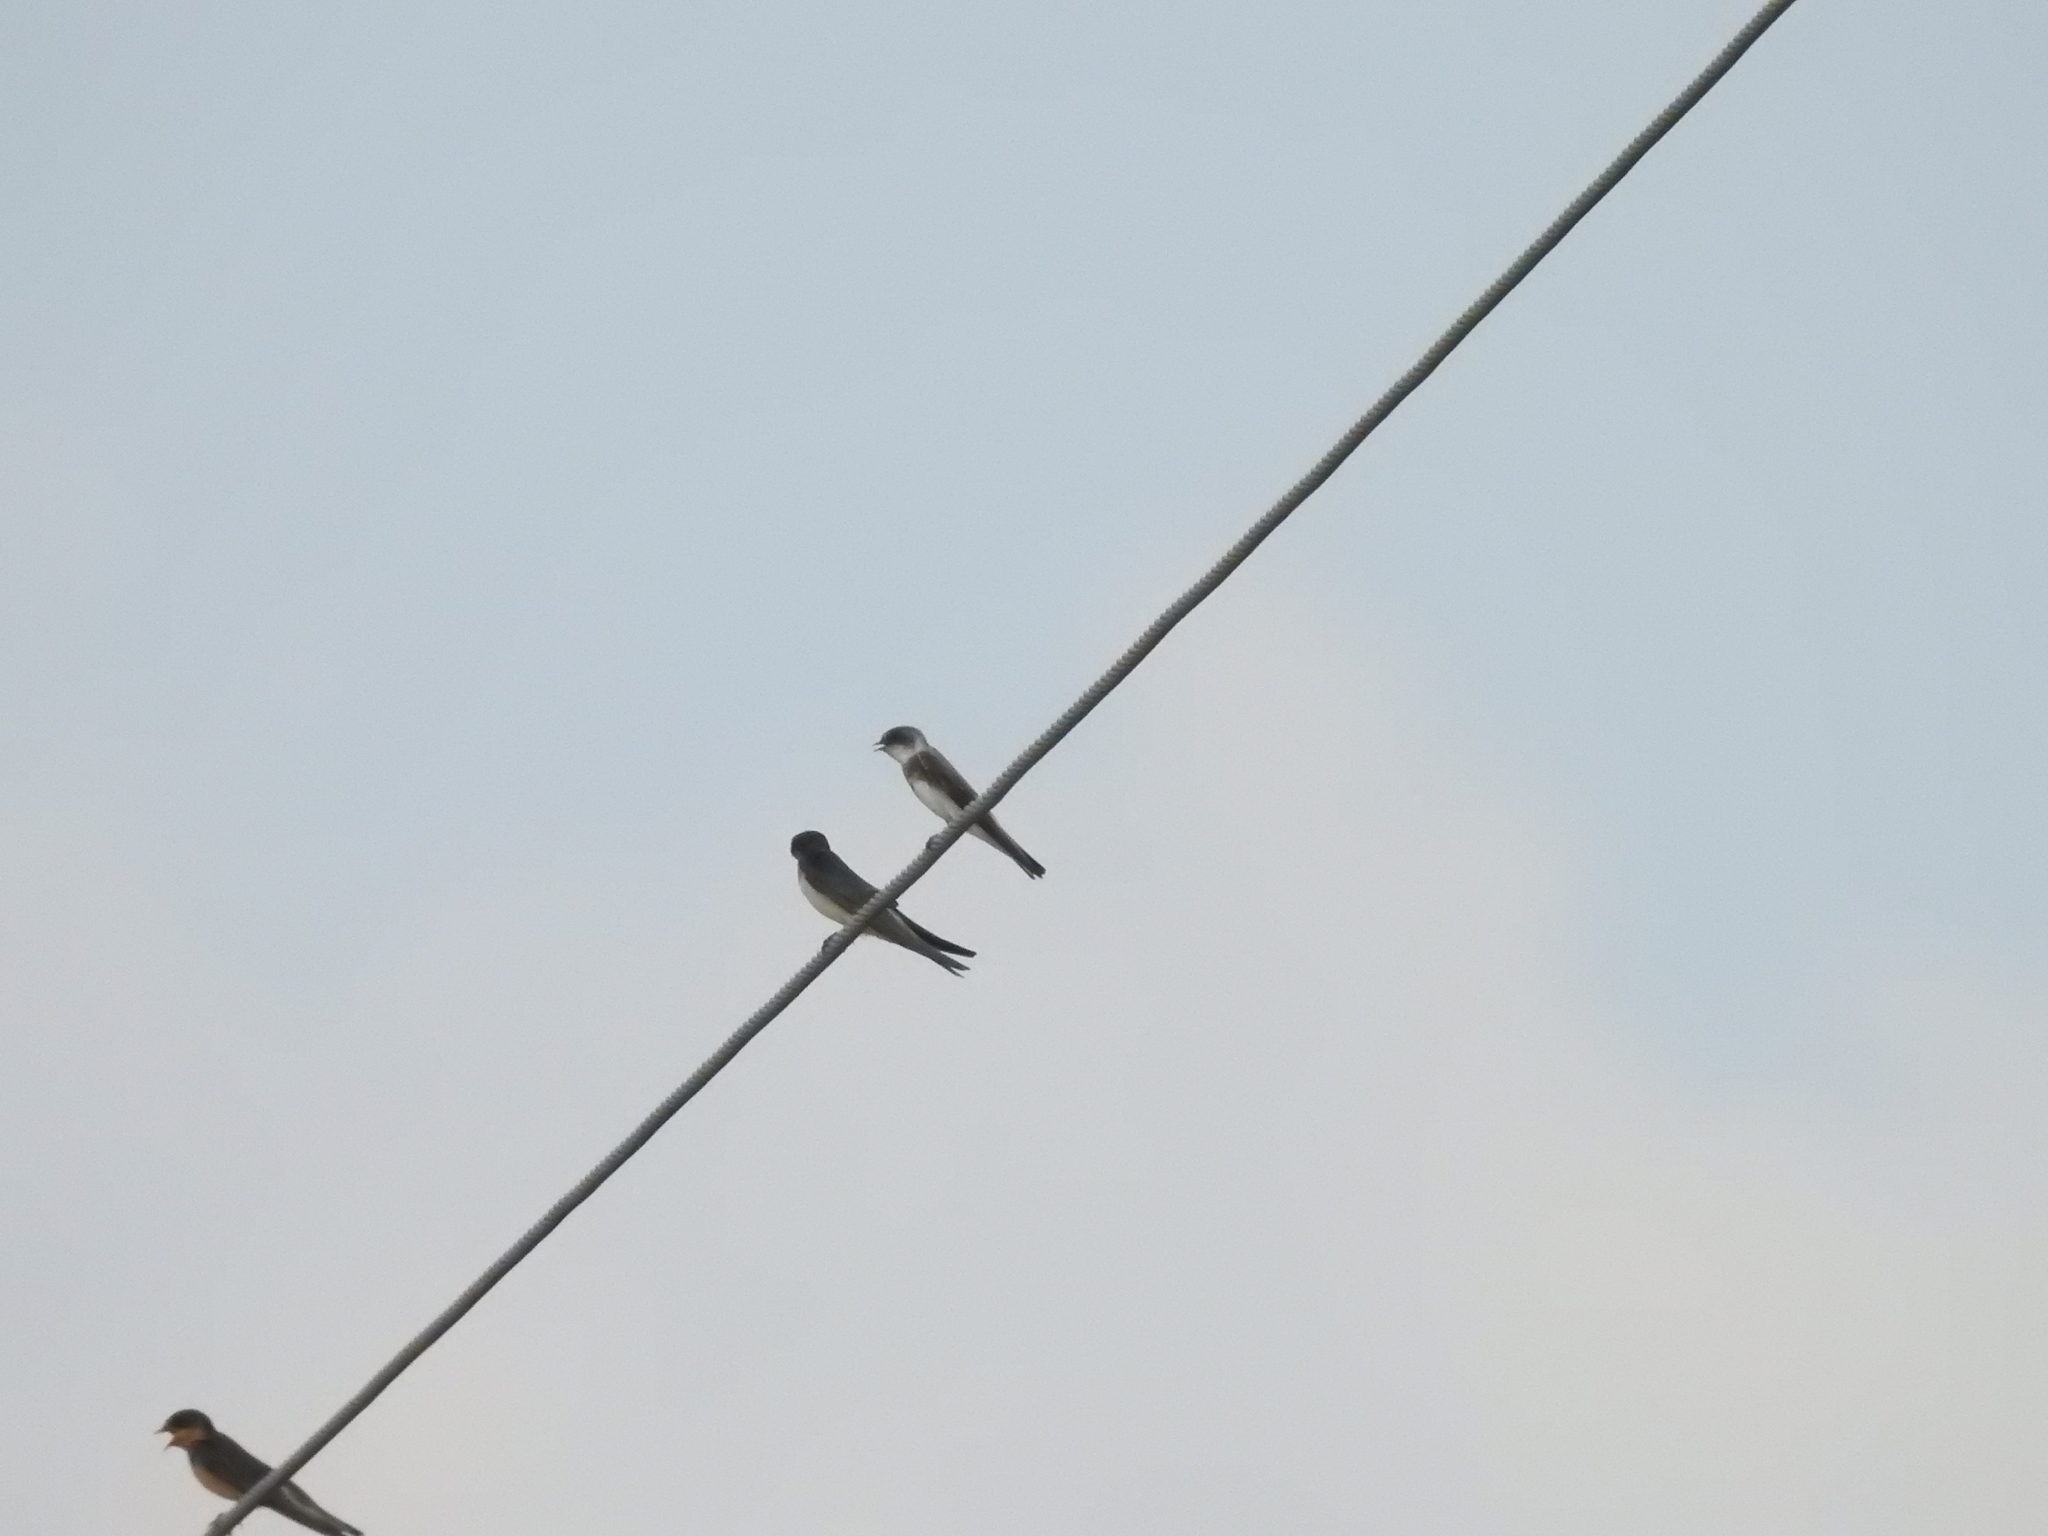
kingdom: Animalia
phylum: Chordata
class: Aves
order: Passeriformes
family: Hirundinidae
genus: Riparia
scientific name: Riparia riparia
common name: Sand martin
